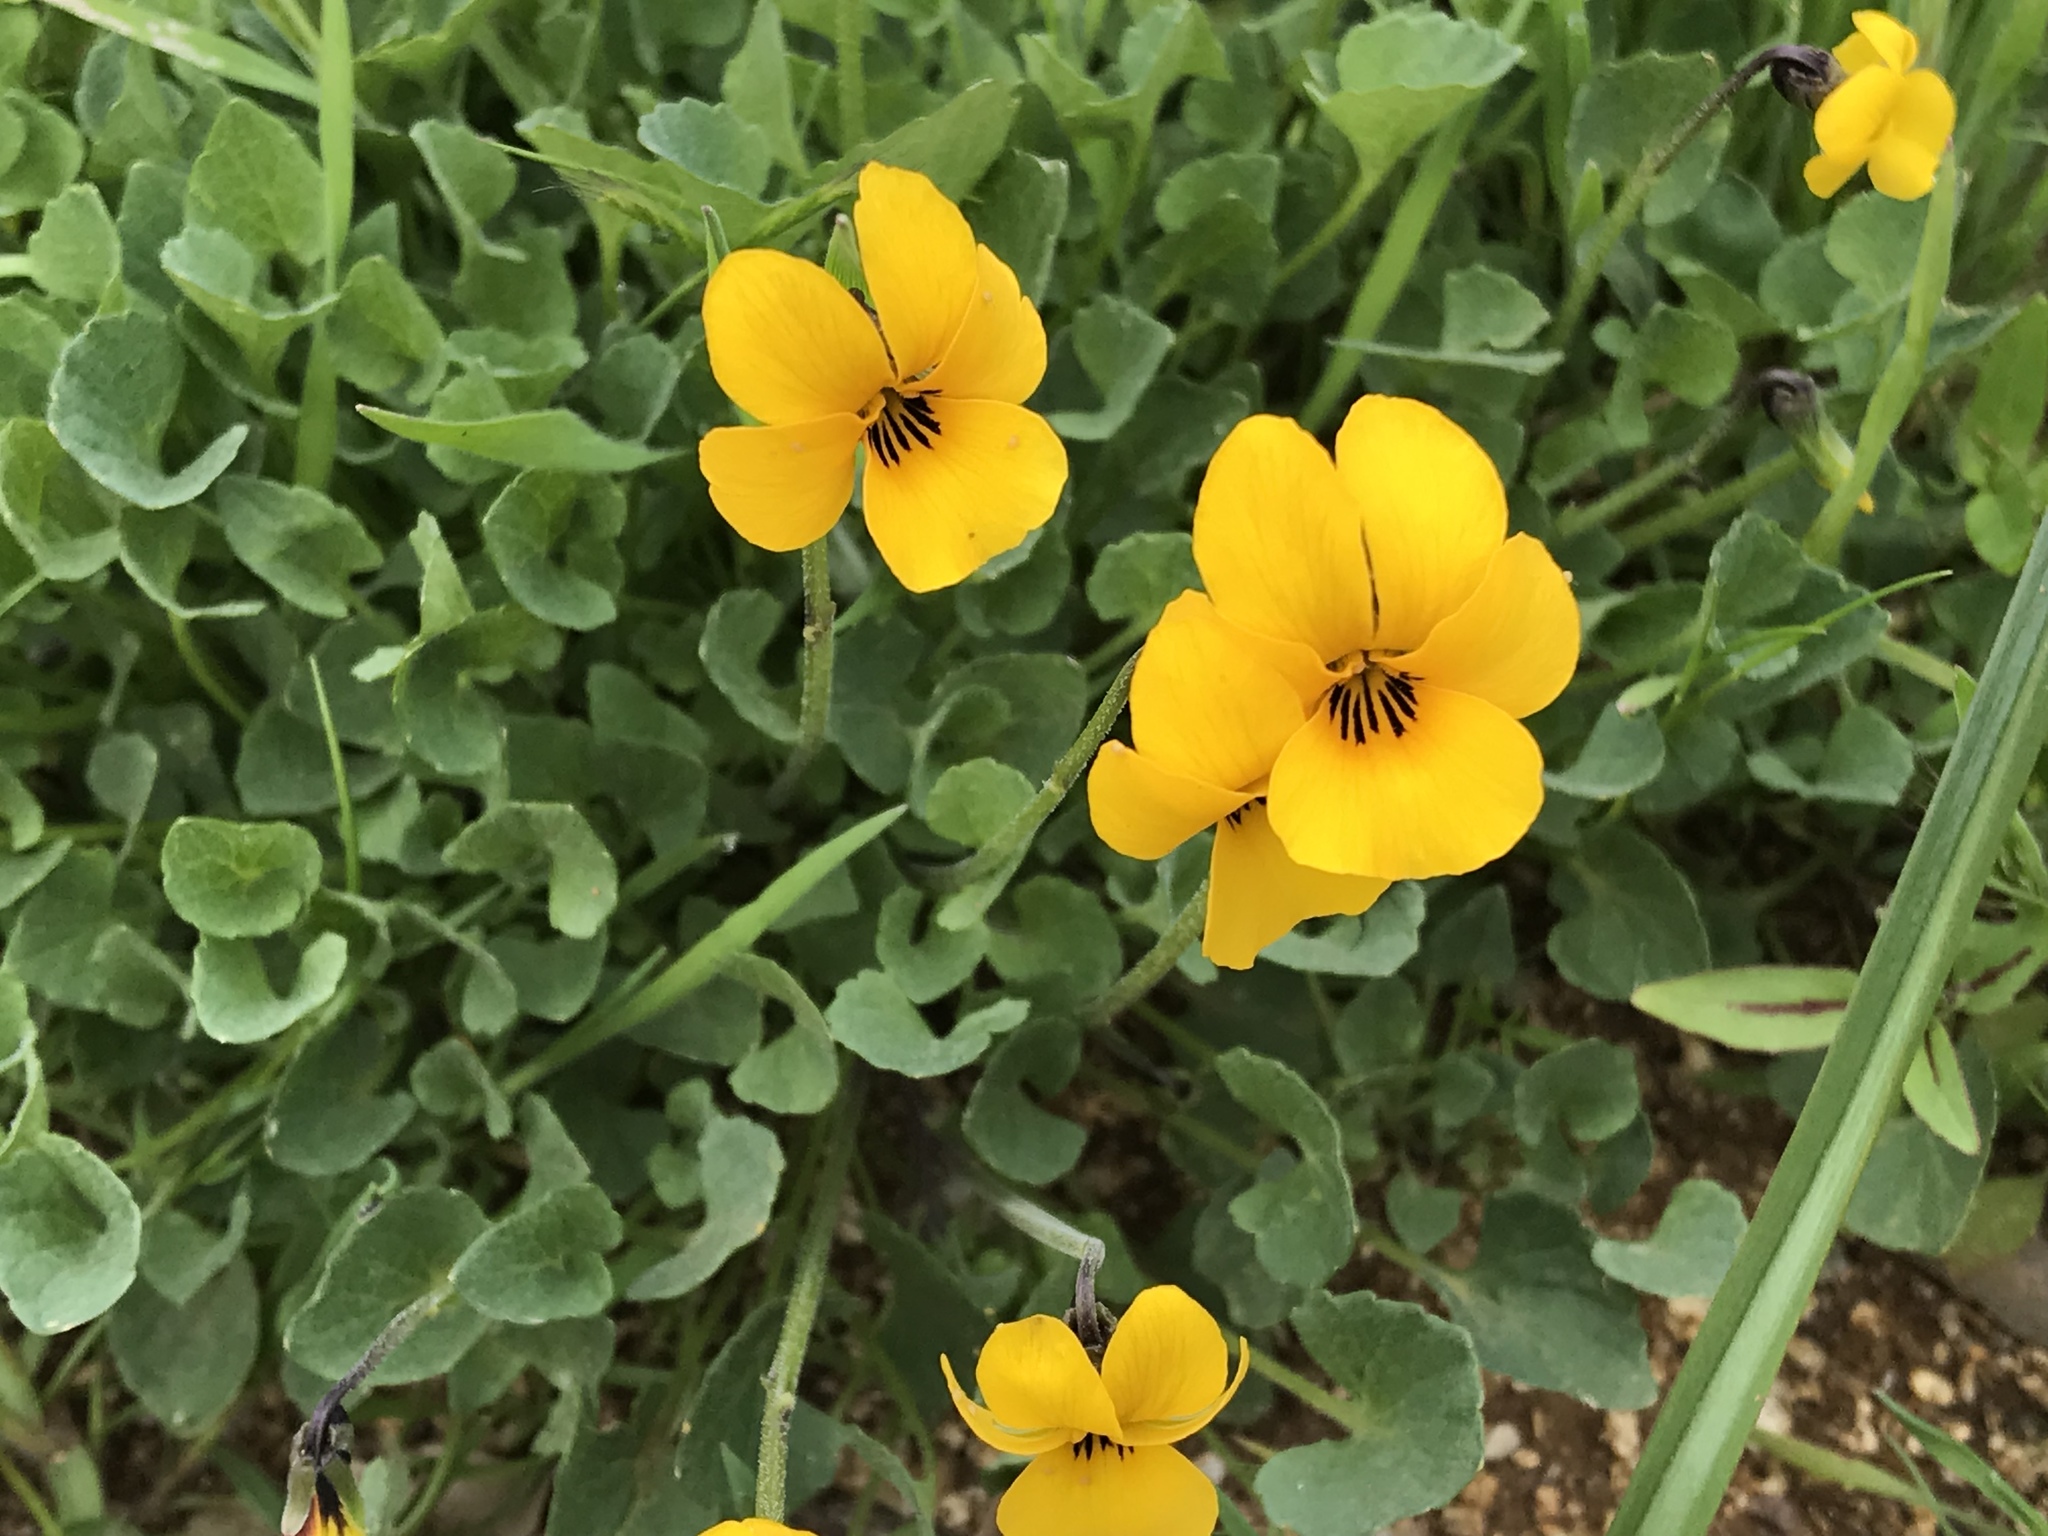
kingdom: Plantae
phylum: Tracheophyta
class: Magnoliopsida
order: Malpighiales
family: Violaceae
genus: Viola
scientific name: Viola pedunculata
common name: California golden violet
